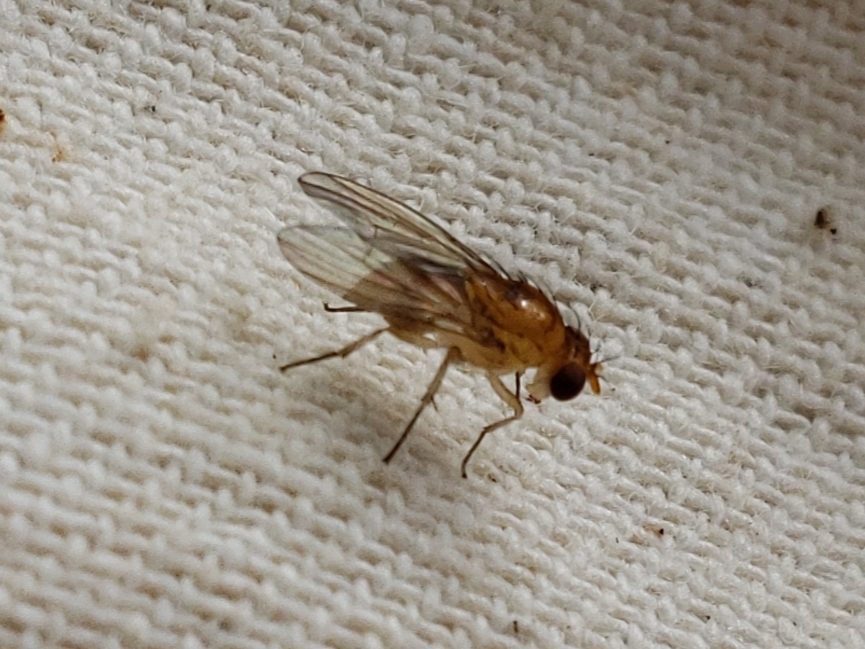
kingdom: Animalia
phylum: Arthropoda
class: Insecta
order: Diptera
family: Lauxaniidae
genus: Neogriphoneura
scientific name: Neogriphoneura sordida
